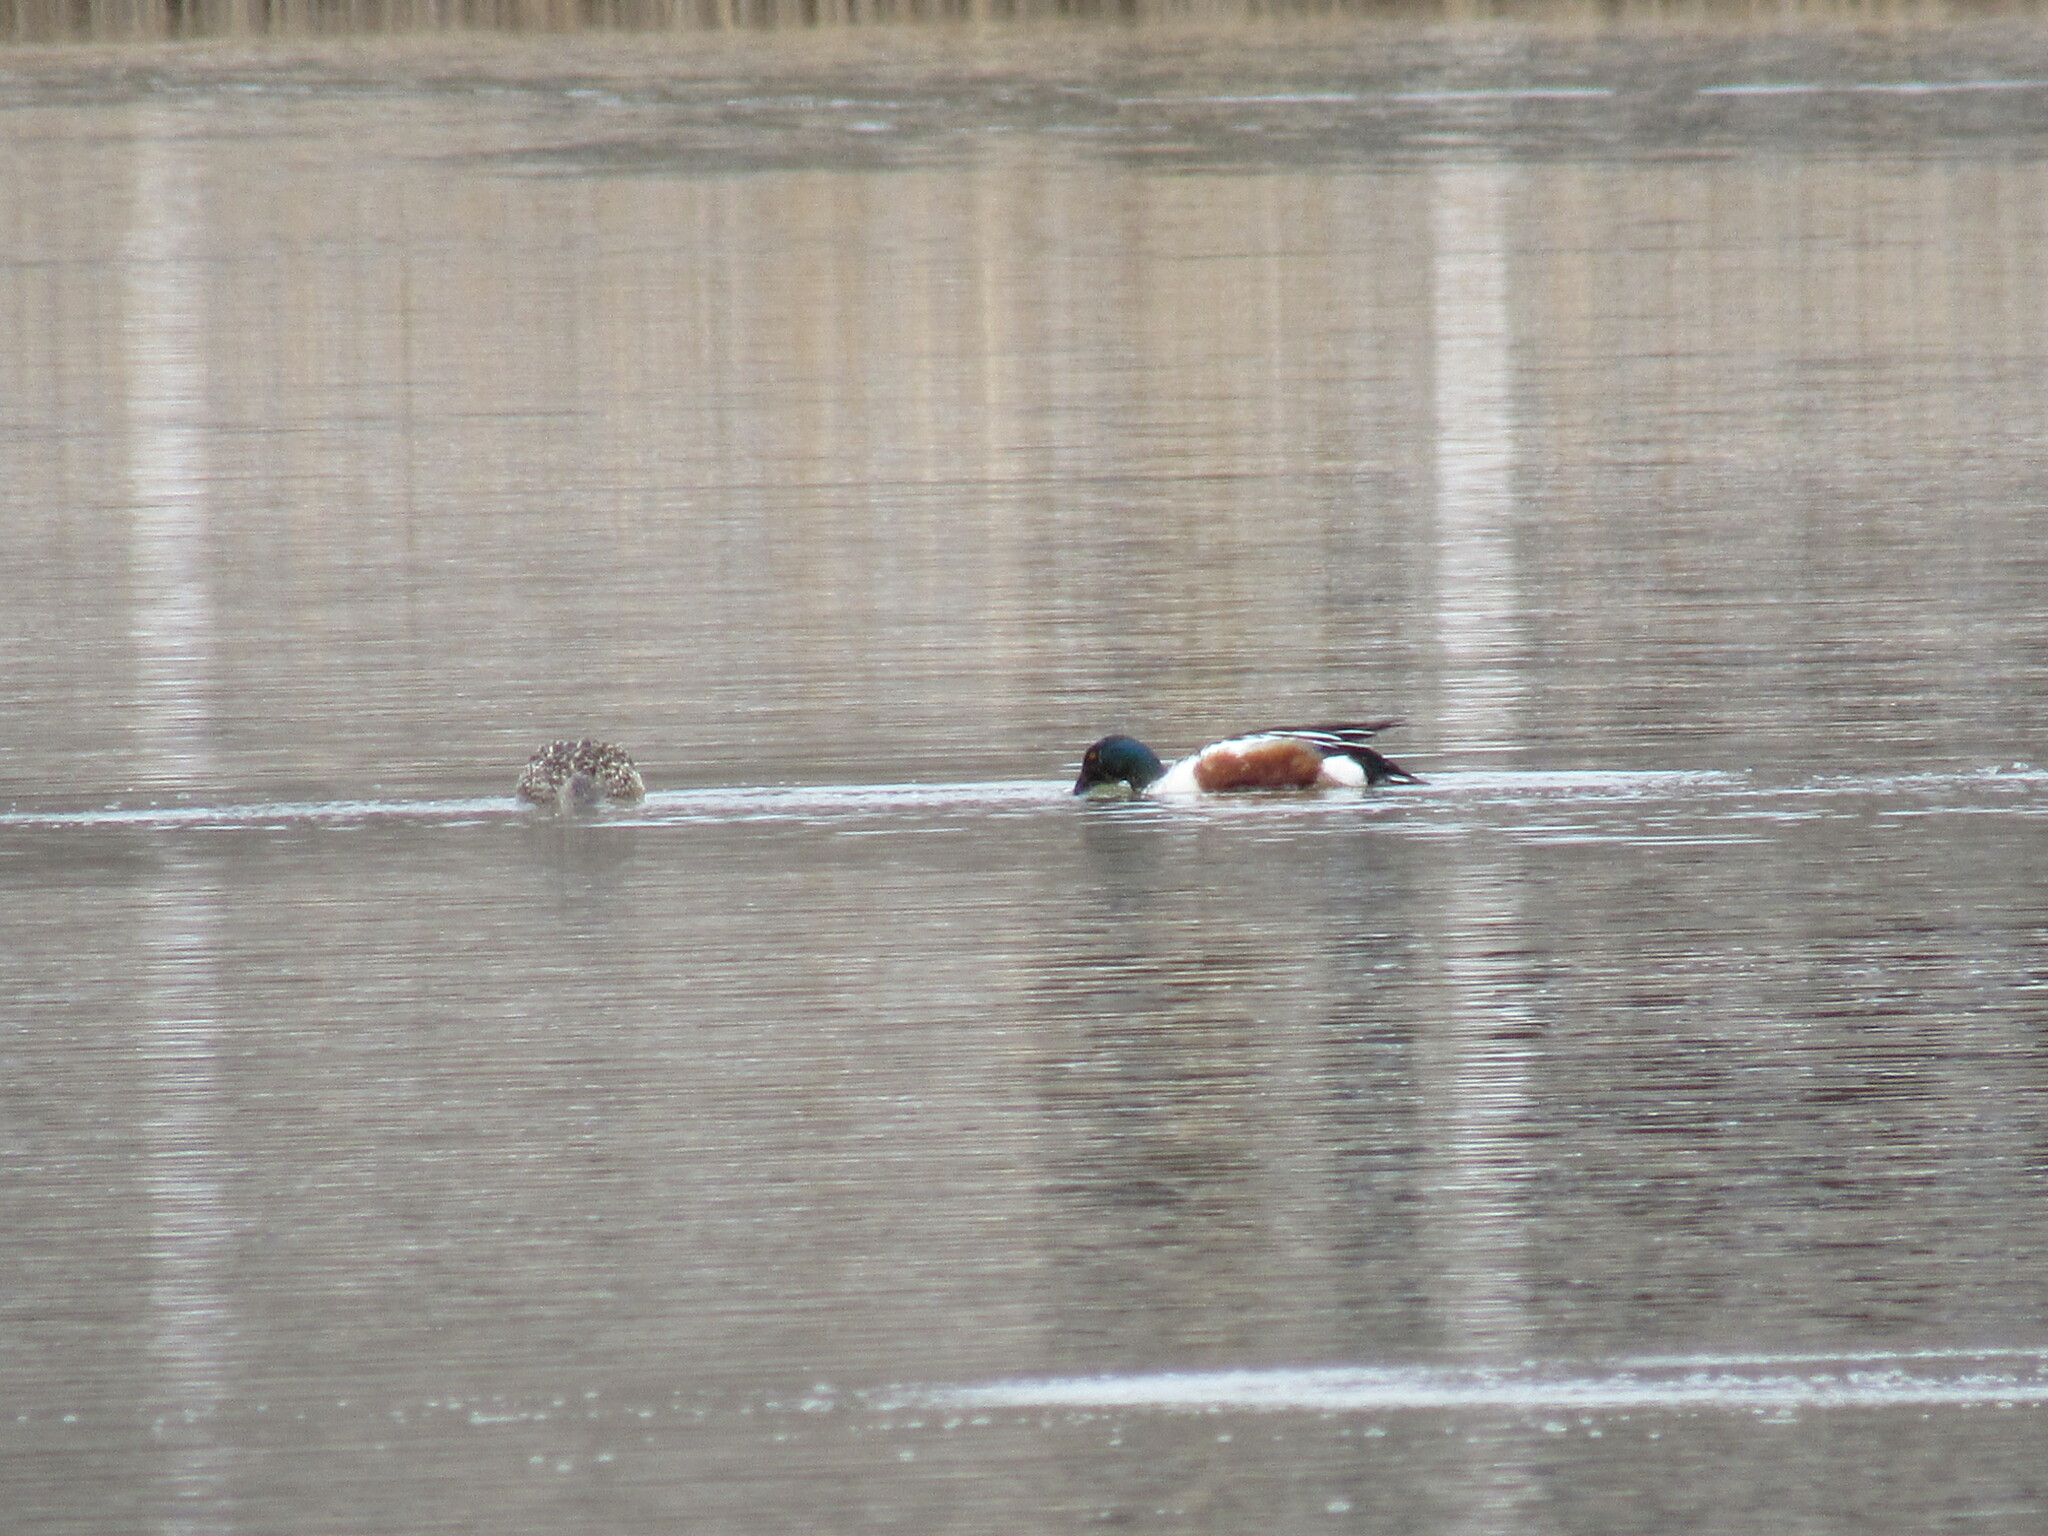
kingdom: Animalia
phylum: Chordata
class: Aves
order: Anseriformes
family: Anatidae
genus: Spatula
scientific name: Spatula clypeata
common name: Northern shoveler
